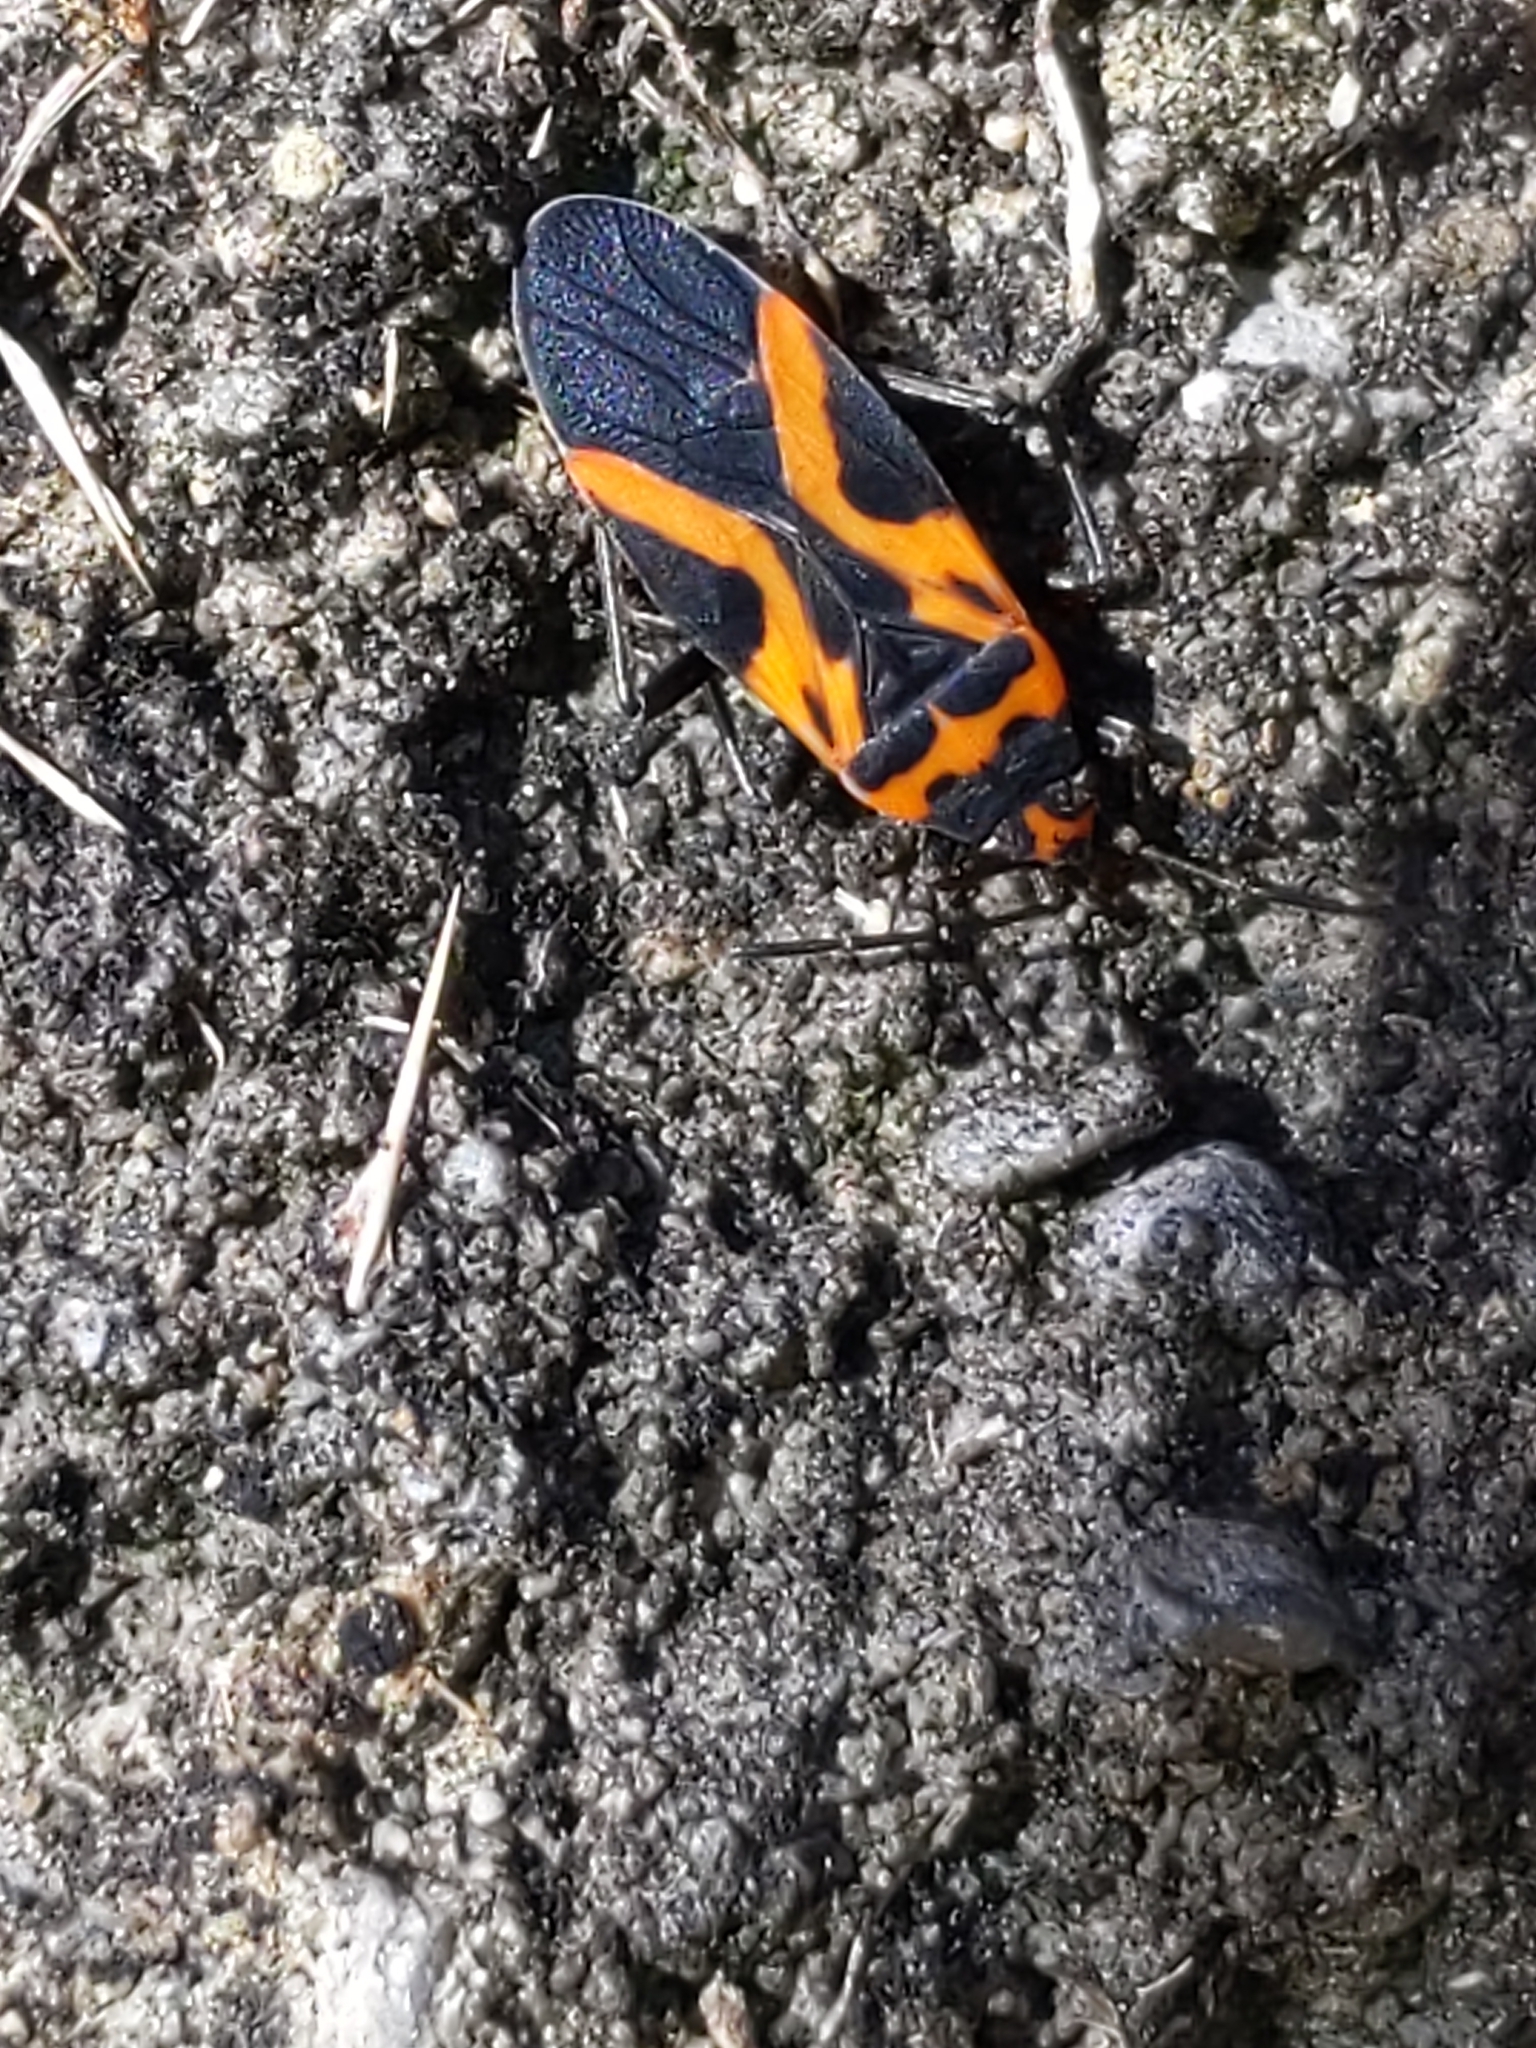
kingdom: Animalia
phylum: Arthropoda
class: Insecta
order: Hemiptera
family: Lygaeidae
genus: Lygaeus
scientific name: Lygaeus turcicus
